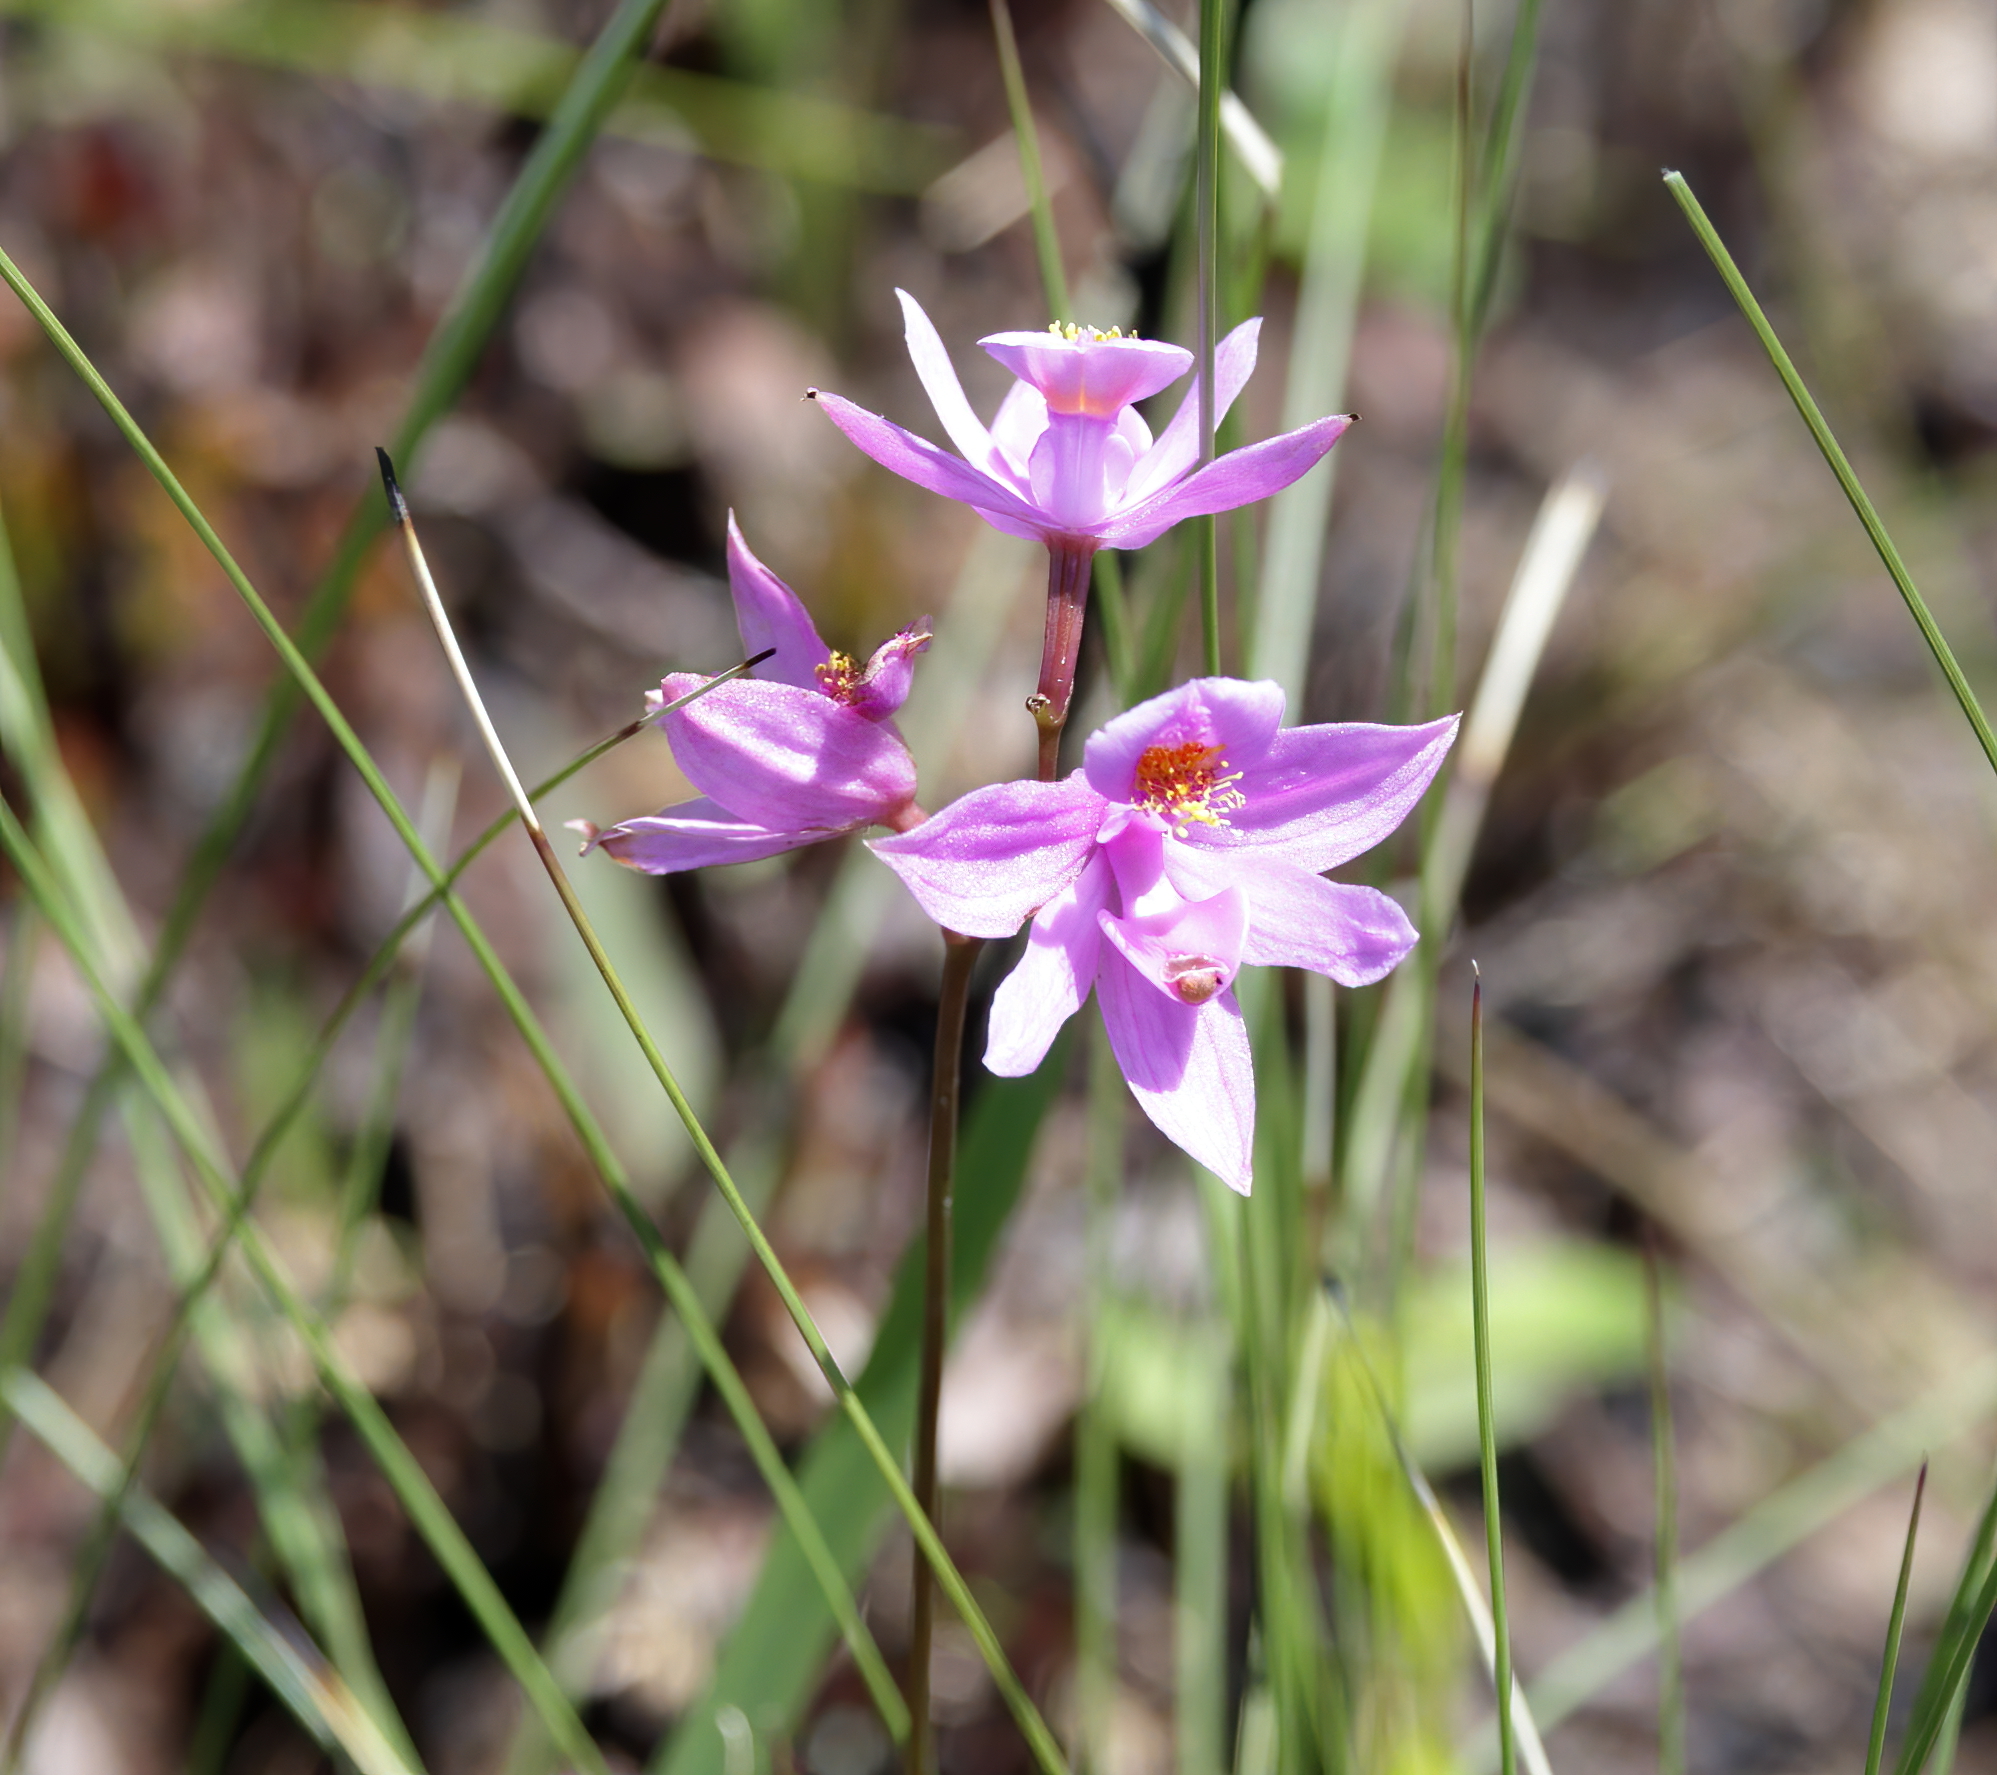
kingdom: Plantae
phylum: Tracheophyta
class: Liliopsida
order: Asparagales
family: Orchidaceae
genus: Calopogon
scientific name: Calopogon barbatus
